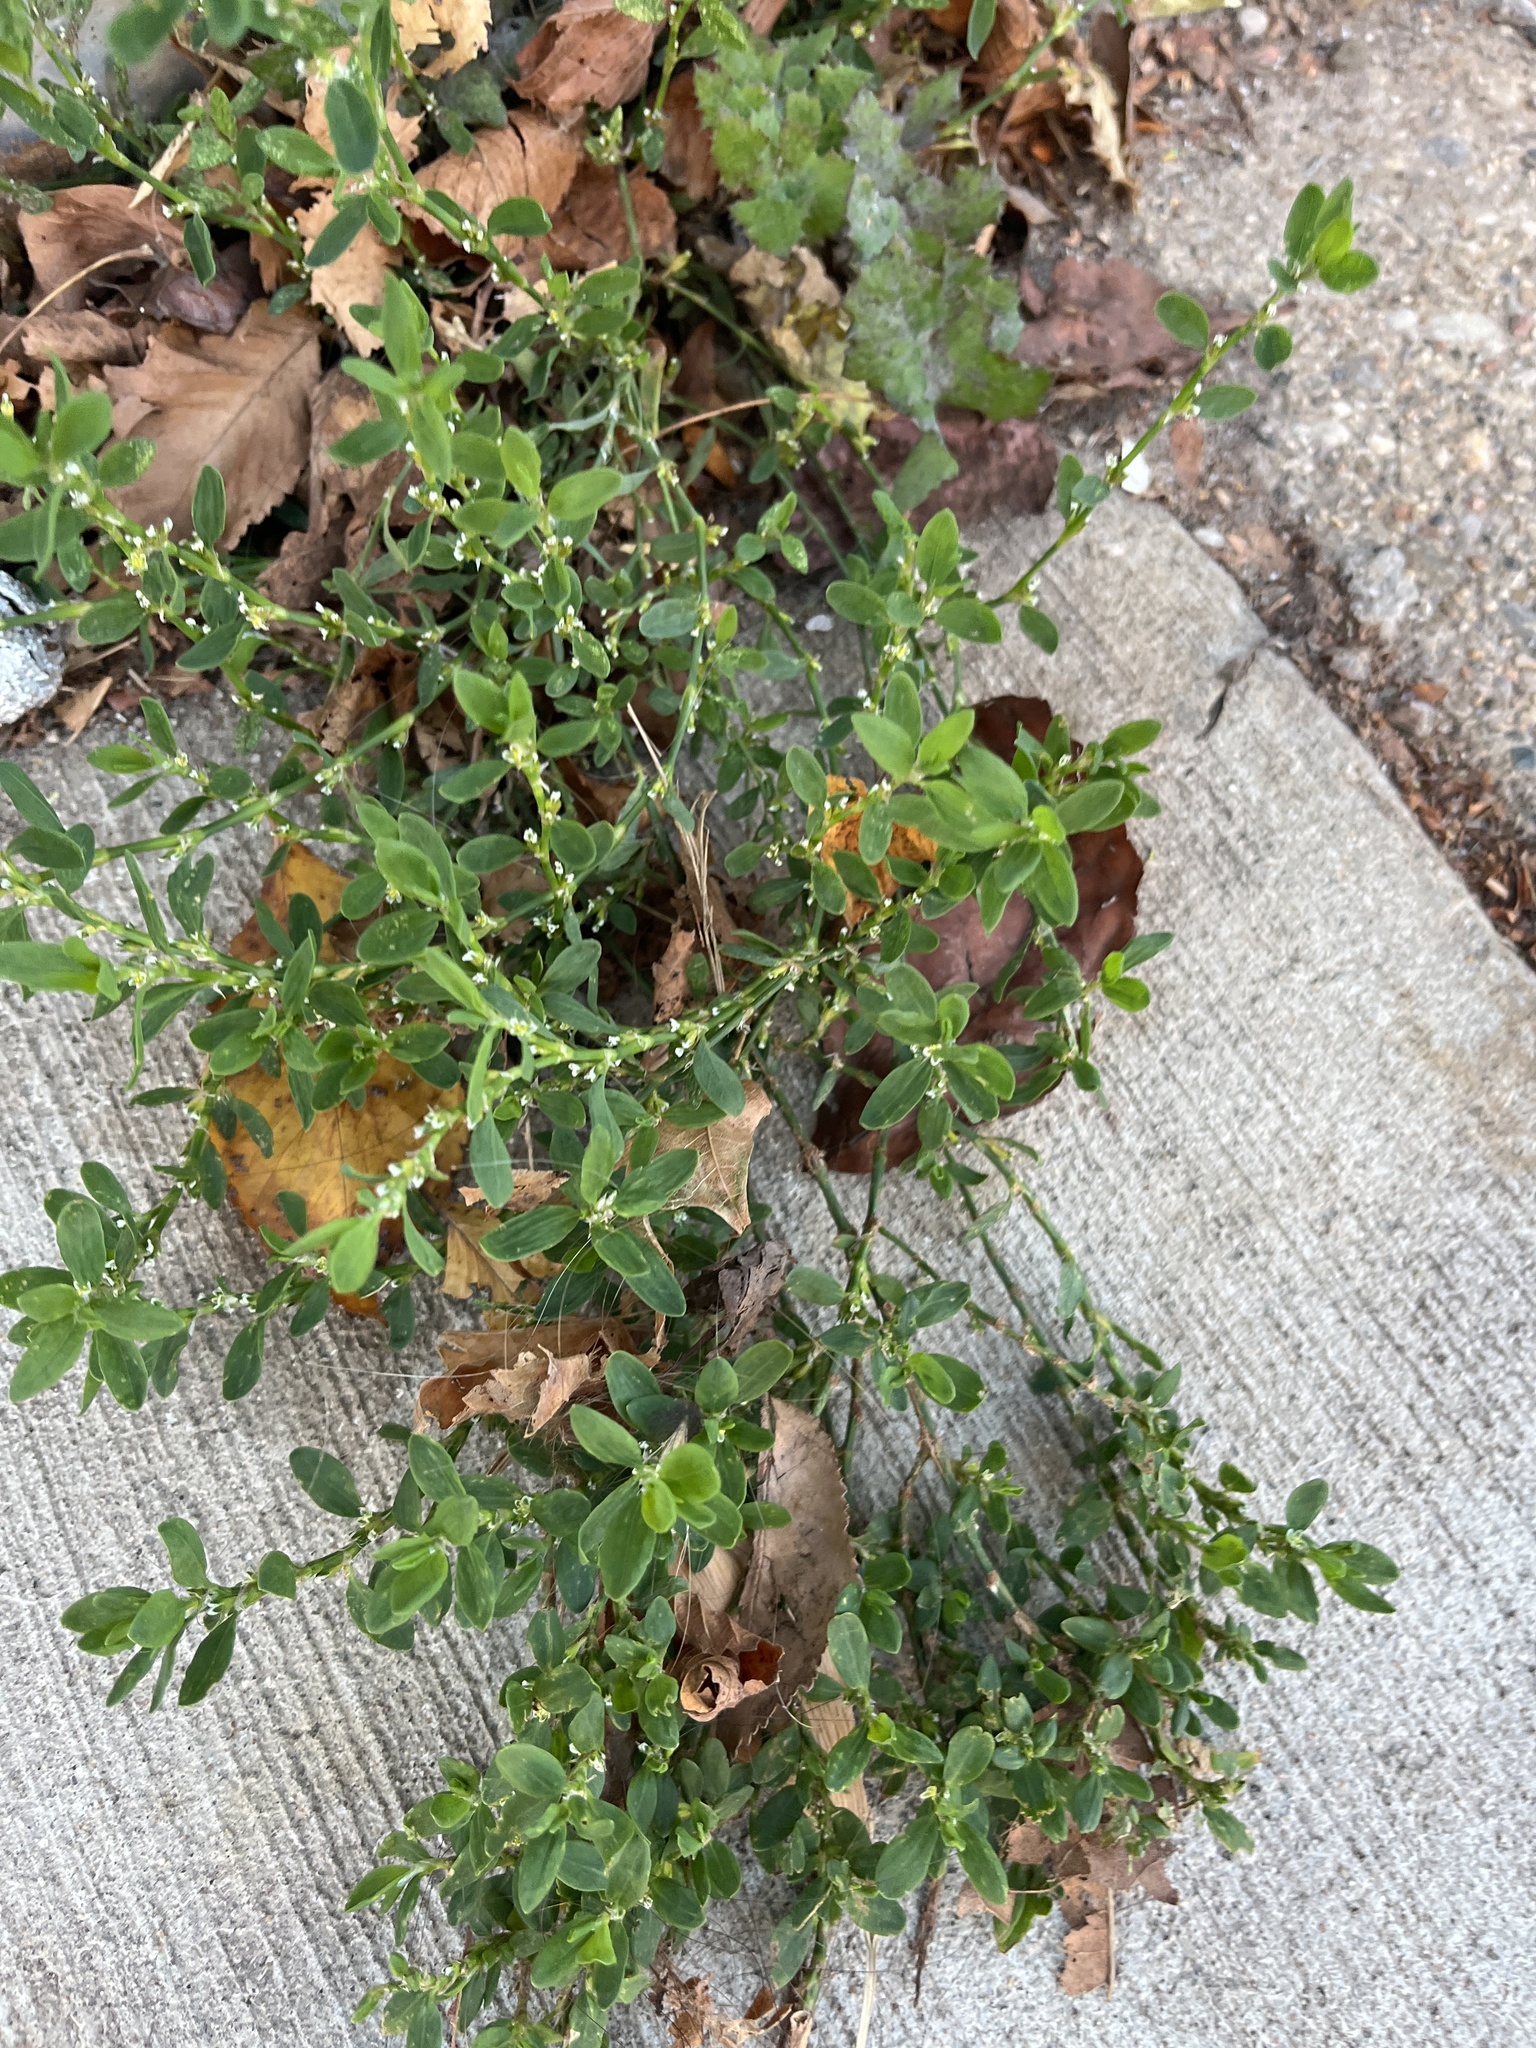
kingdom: Plantae
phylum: Tracheophyta
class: Magnoliopsida
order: Caryophyllales
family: Polygonaceae
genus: Polygonum
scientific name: Polygonum aviculare
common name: Prostrate knotweed
